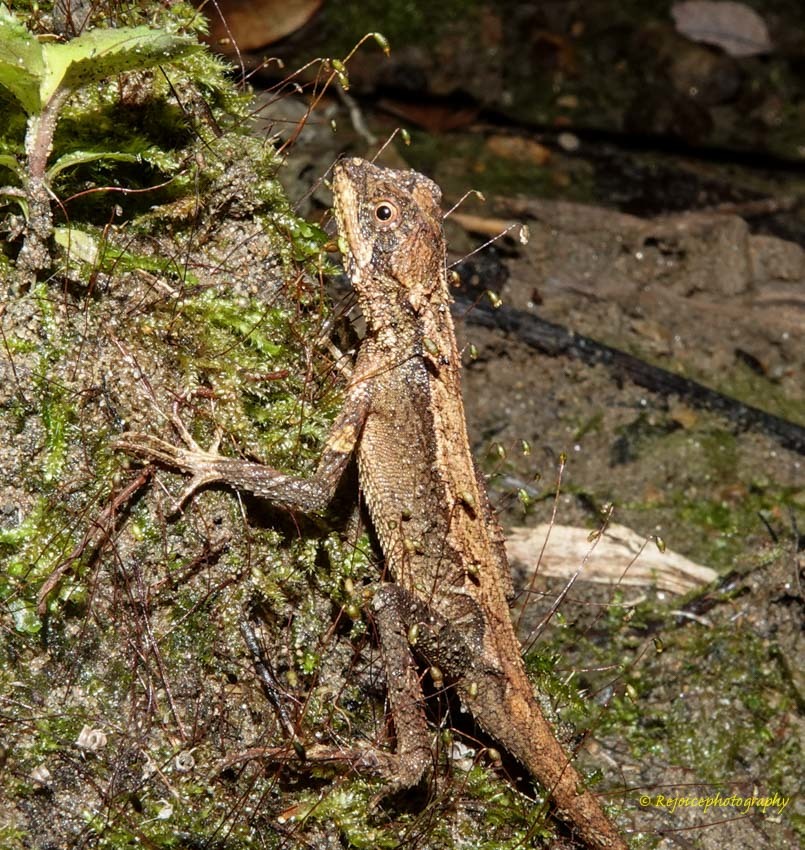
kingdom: Animalia
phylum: Chordata
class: Squamata
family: Agamidae
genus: Cristidorsa
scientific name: Cristidorsa planidorsata
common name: Smooth-scaled mountain lizard
